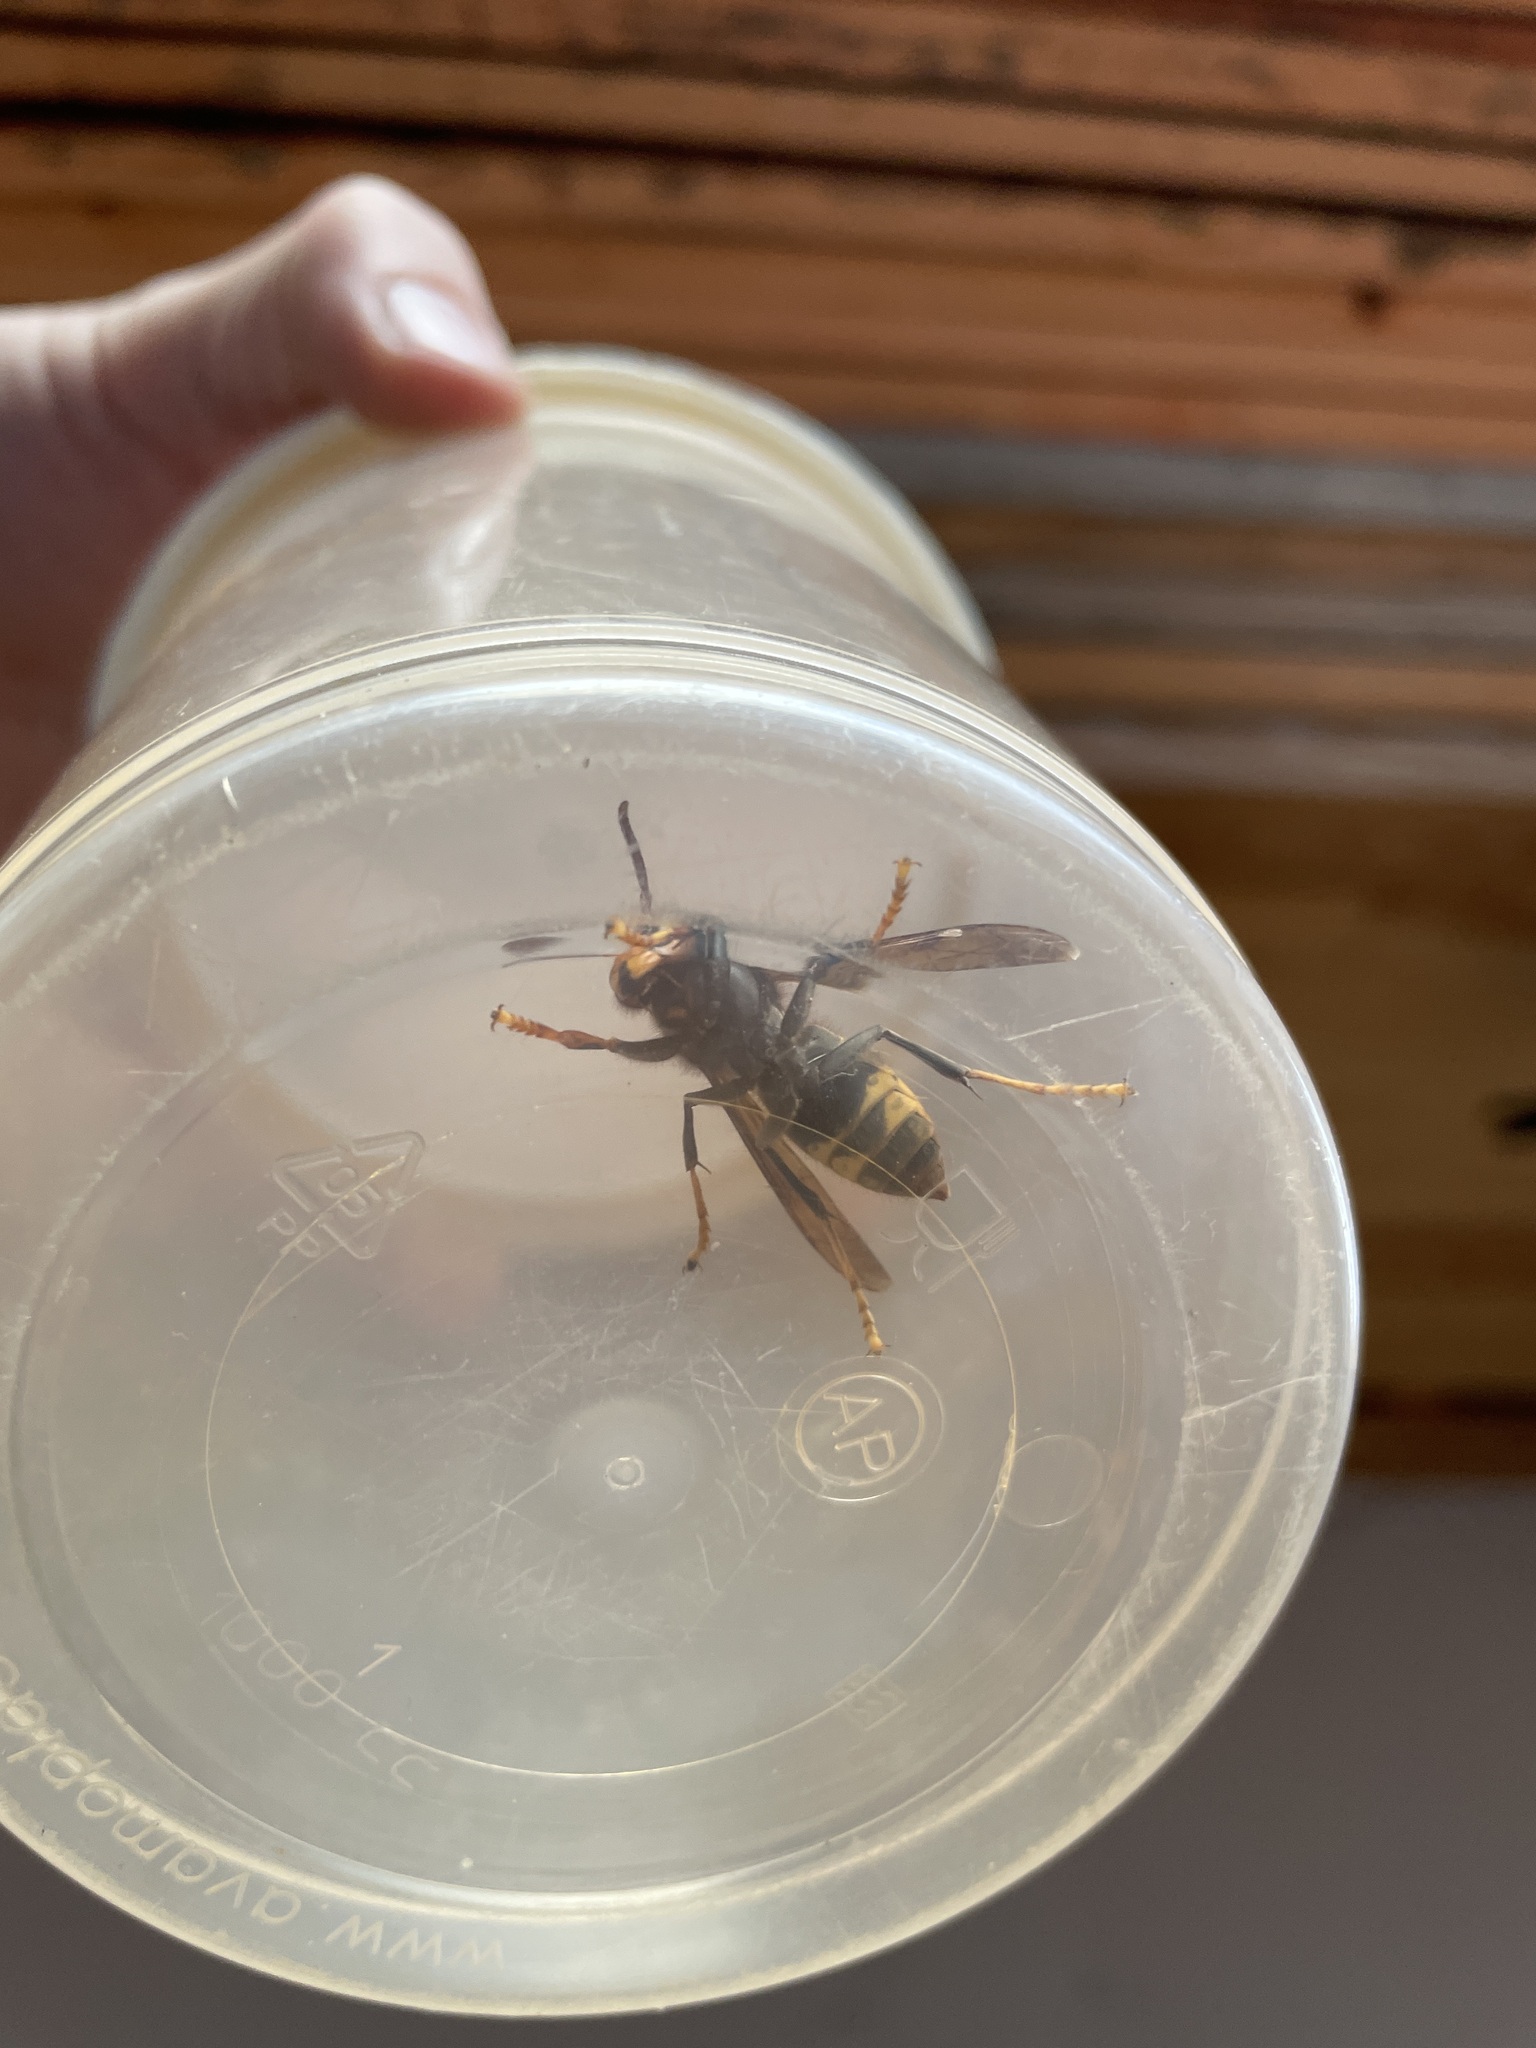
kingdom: Animalia
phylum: Arthropoda
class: Insecta
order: Hymenoptera
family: Vespidae
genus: Vespa
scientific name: Vespa velutina
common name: Asian hornet
